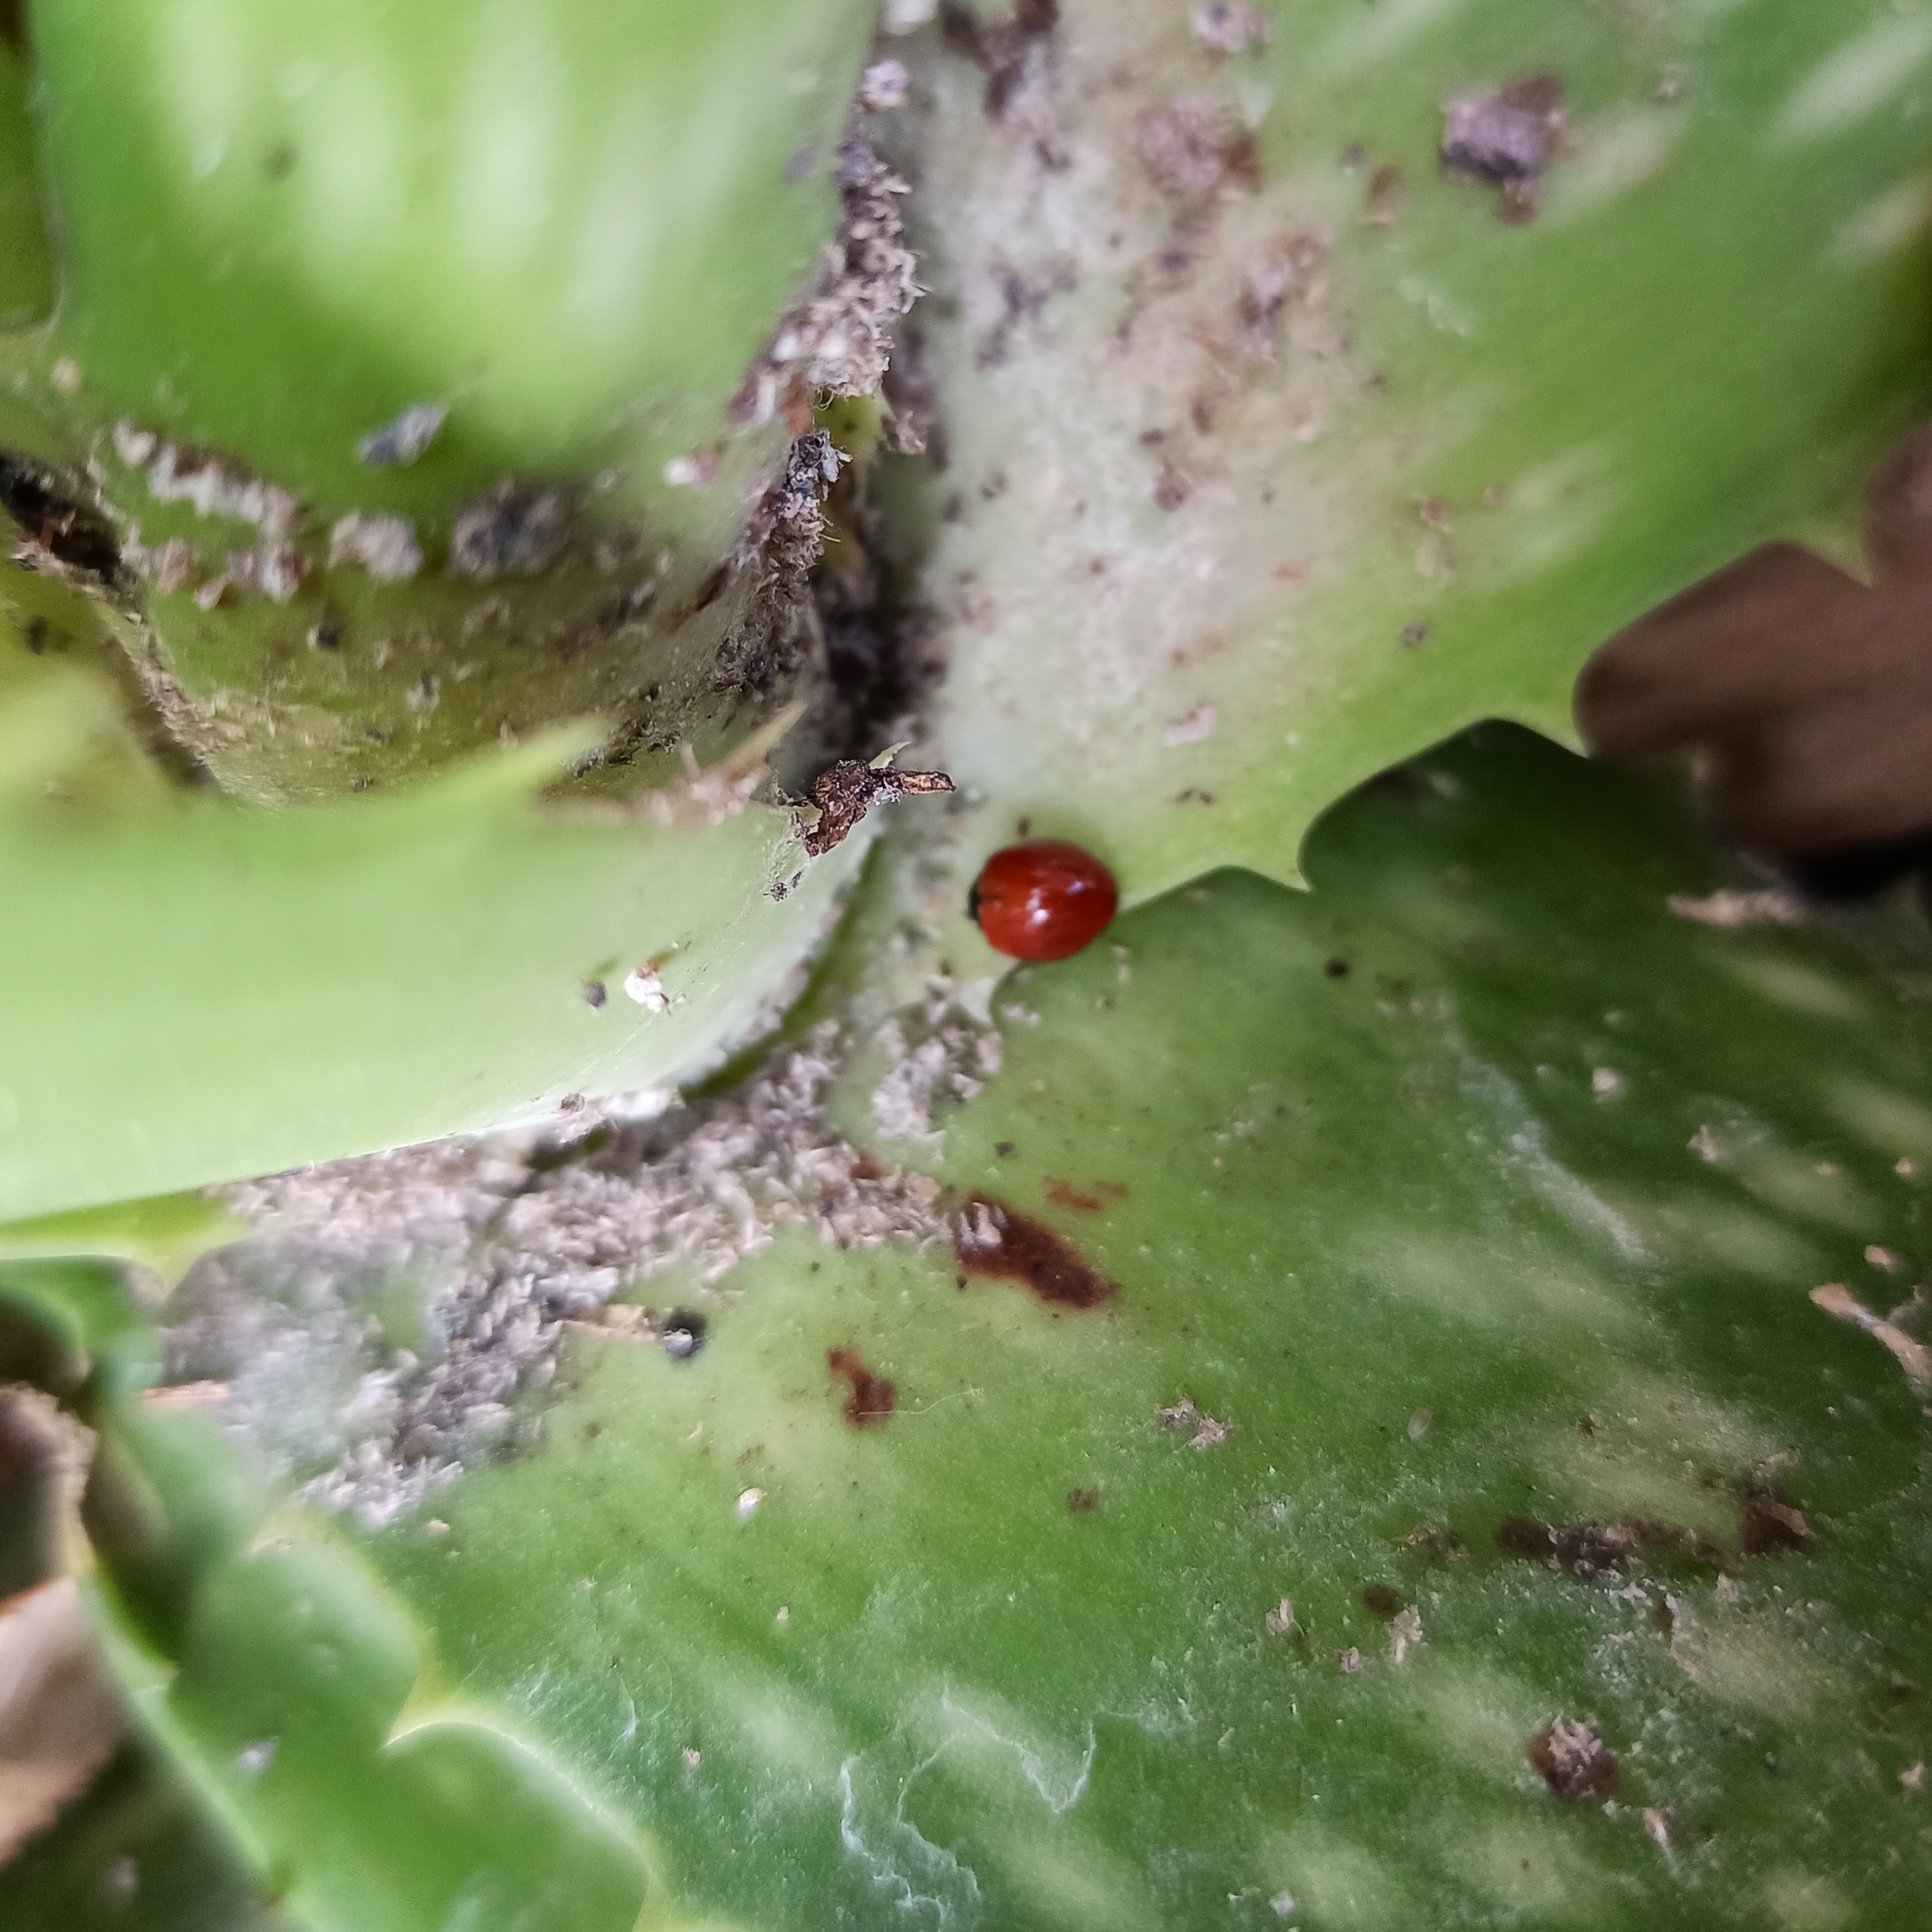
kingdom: Animalia
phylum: Arthropoda
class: Insecta
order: Coleoptera
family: Coccinellidae
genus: Cycloneda
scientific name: Cycloneda sanguinea
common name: Ladybird beetle
